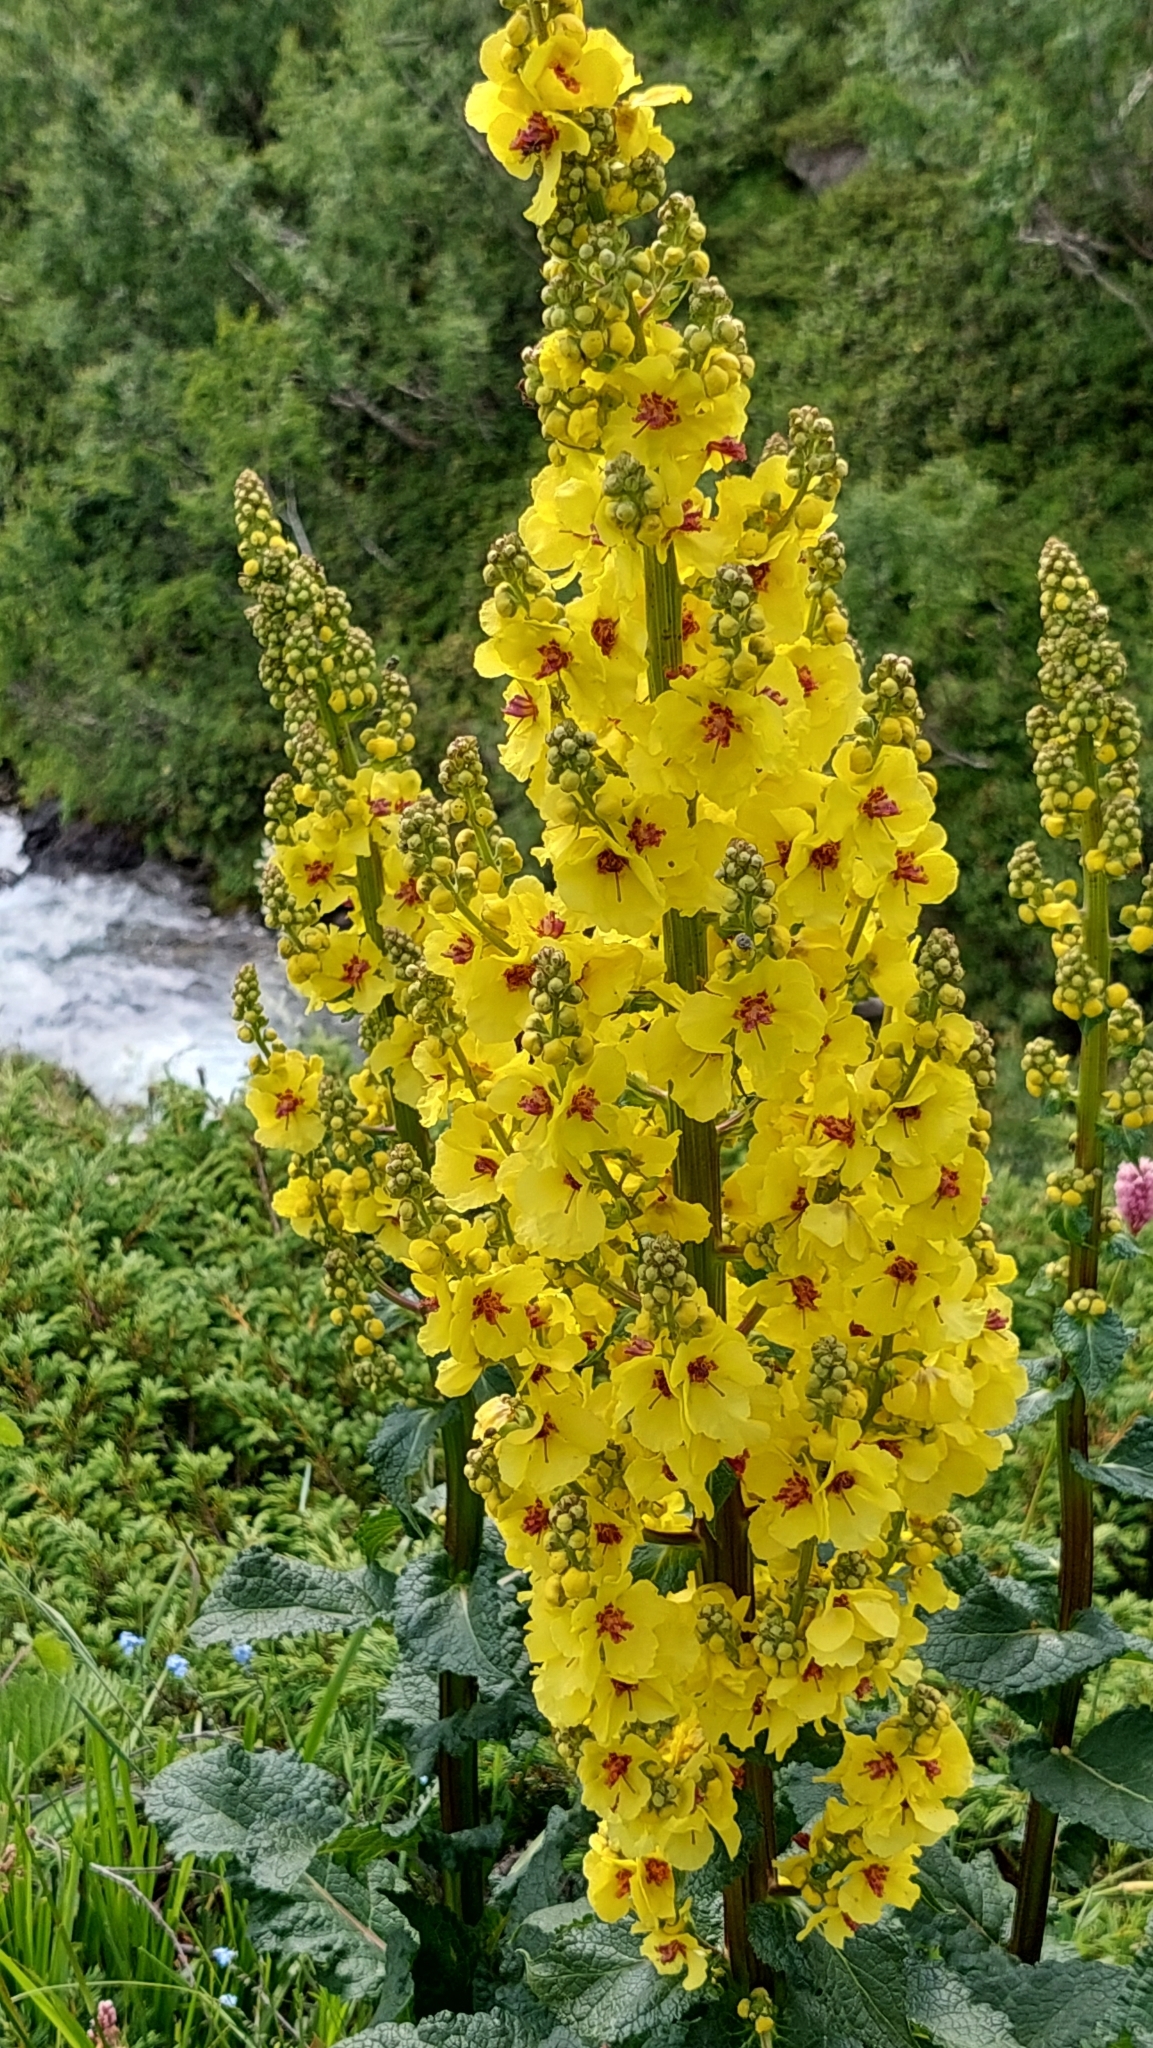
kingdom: Plantae
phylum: Tracheophyta
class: Magnoliopsida
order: Lamiales
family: Scrophulariaceae
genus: Verbascum
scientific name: Verbascum pyramidatum
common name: Caucasian mullein
